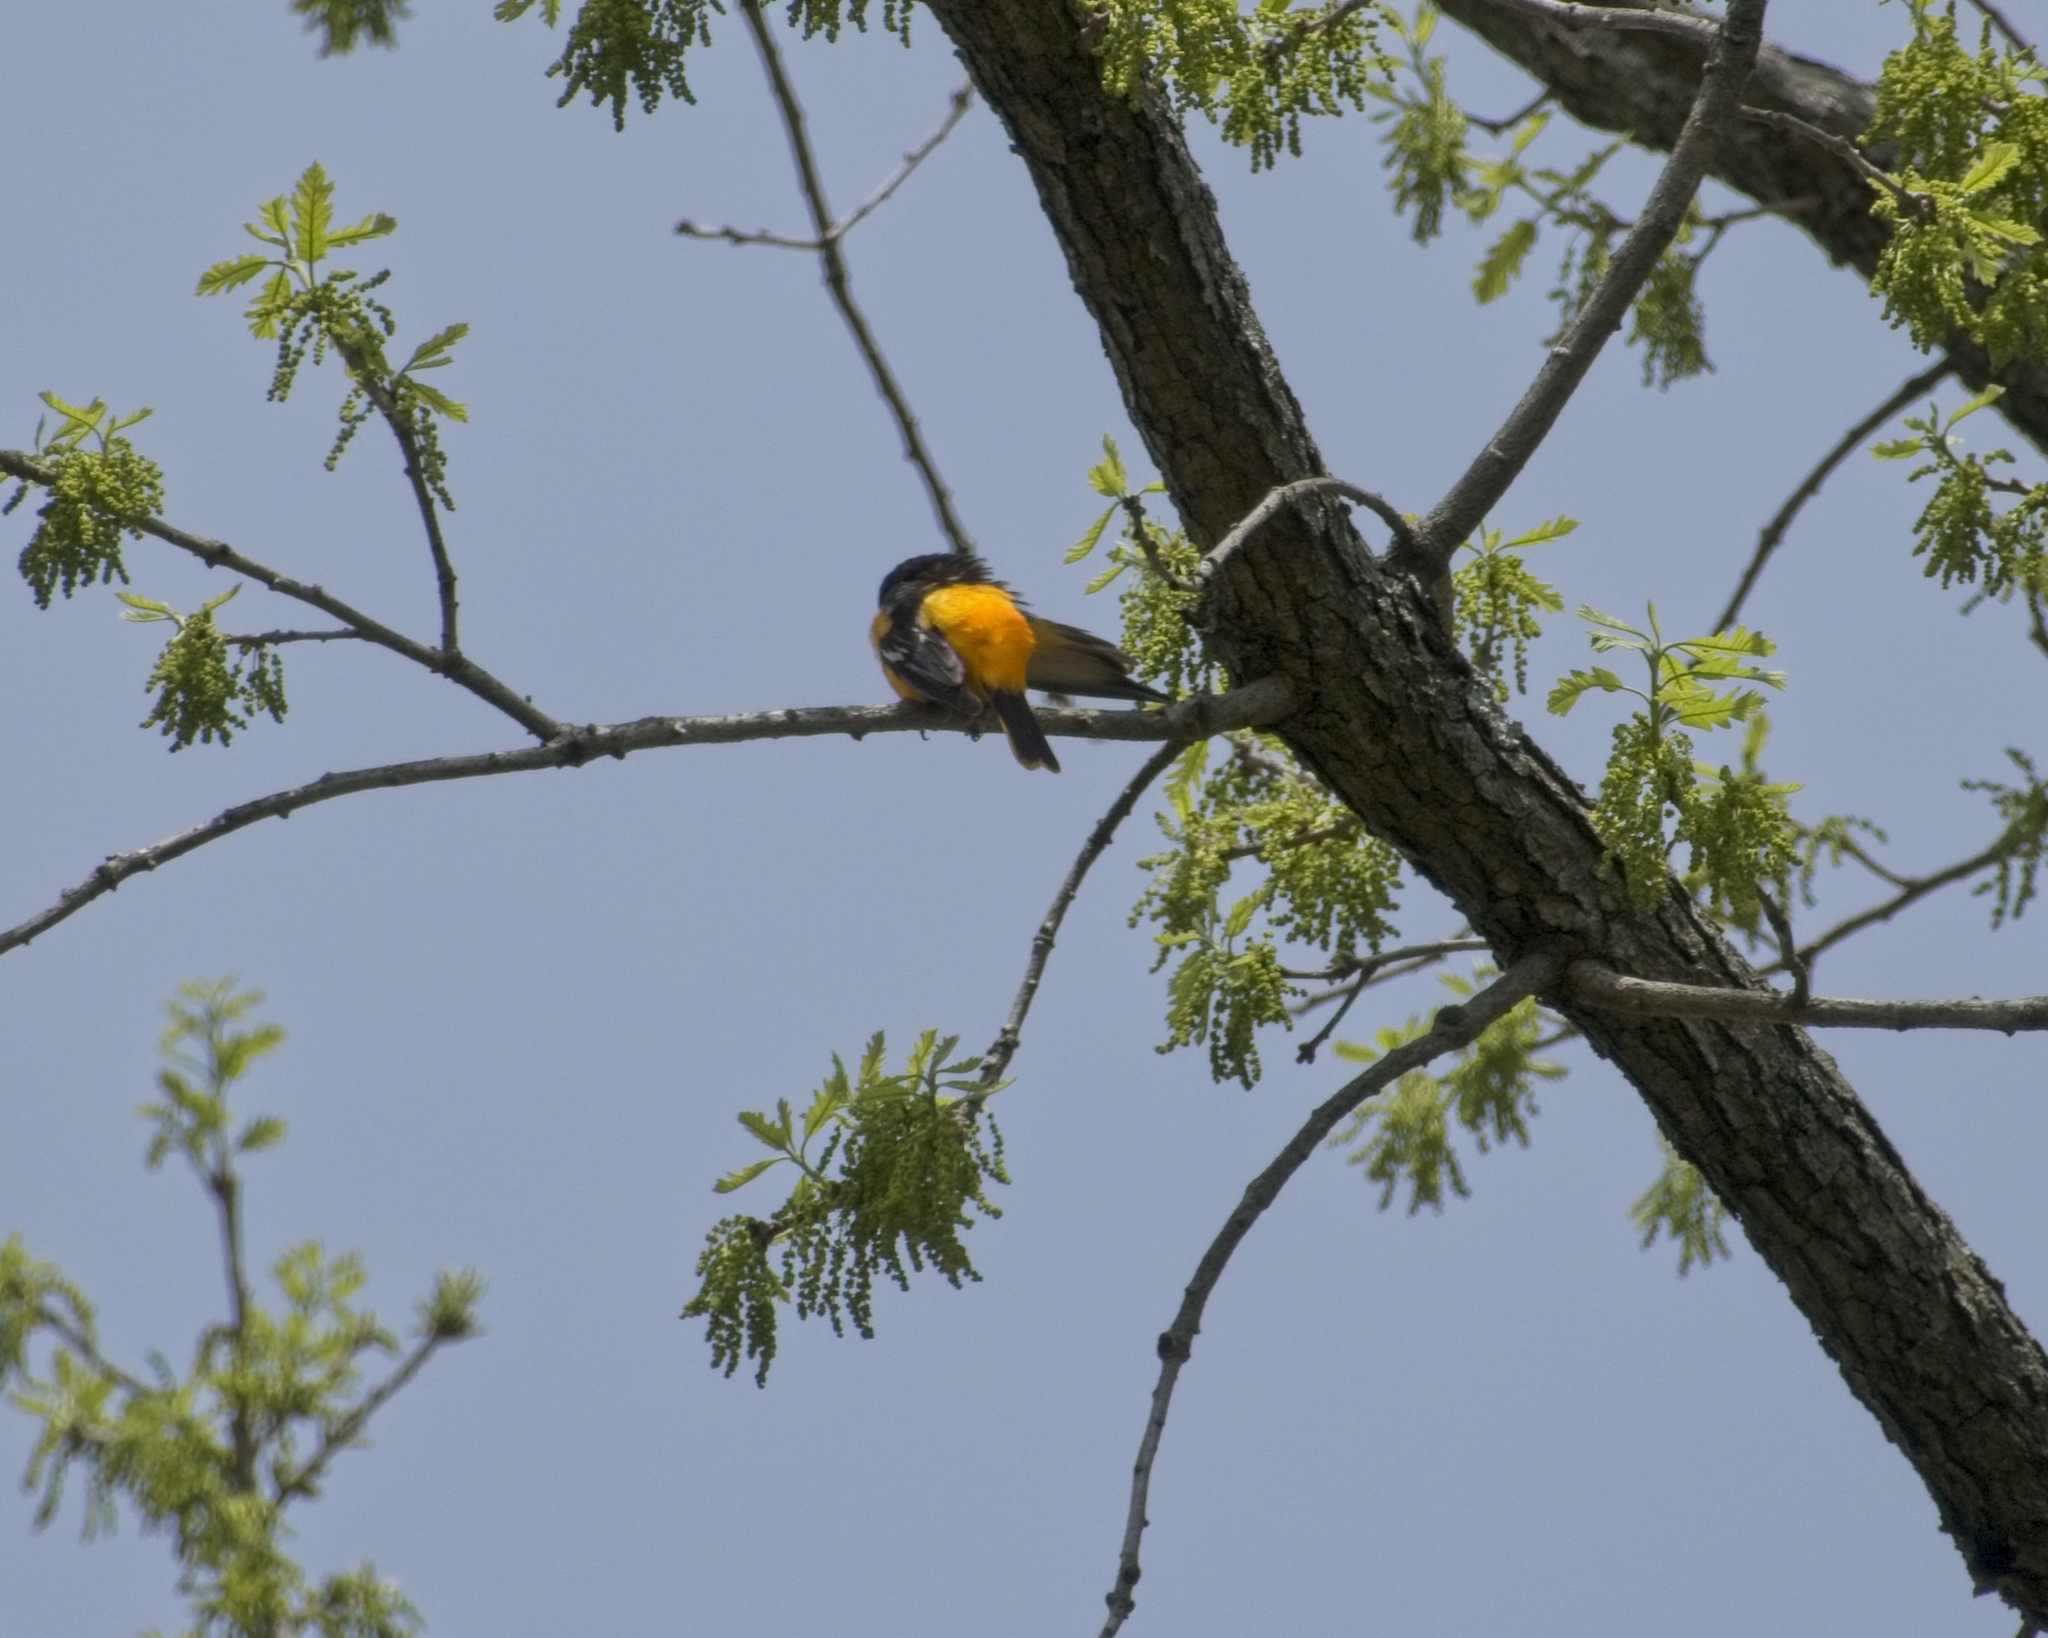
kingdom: Animalia
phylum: Chordata
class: Aves
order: Passeriformes
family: Icteridae
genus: Icterus
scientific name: Icterus galbula
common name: Baltimore oriole
